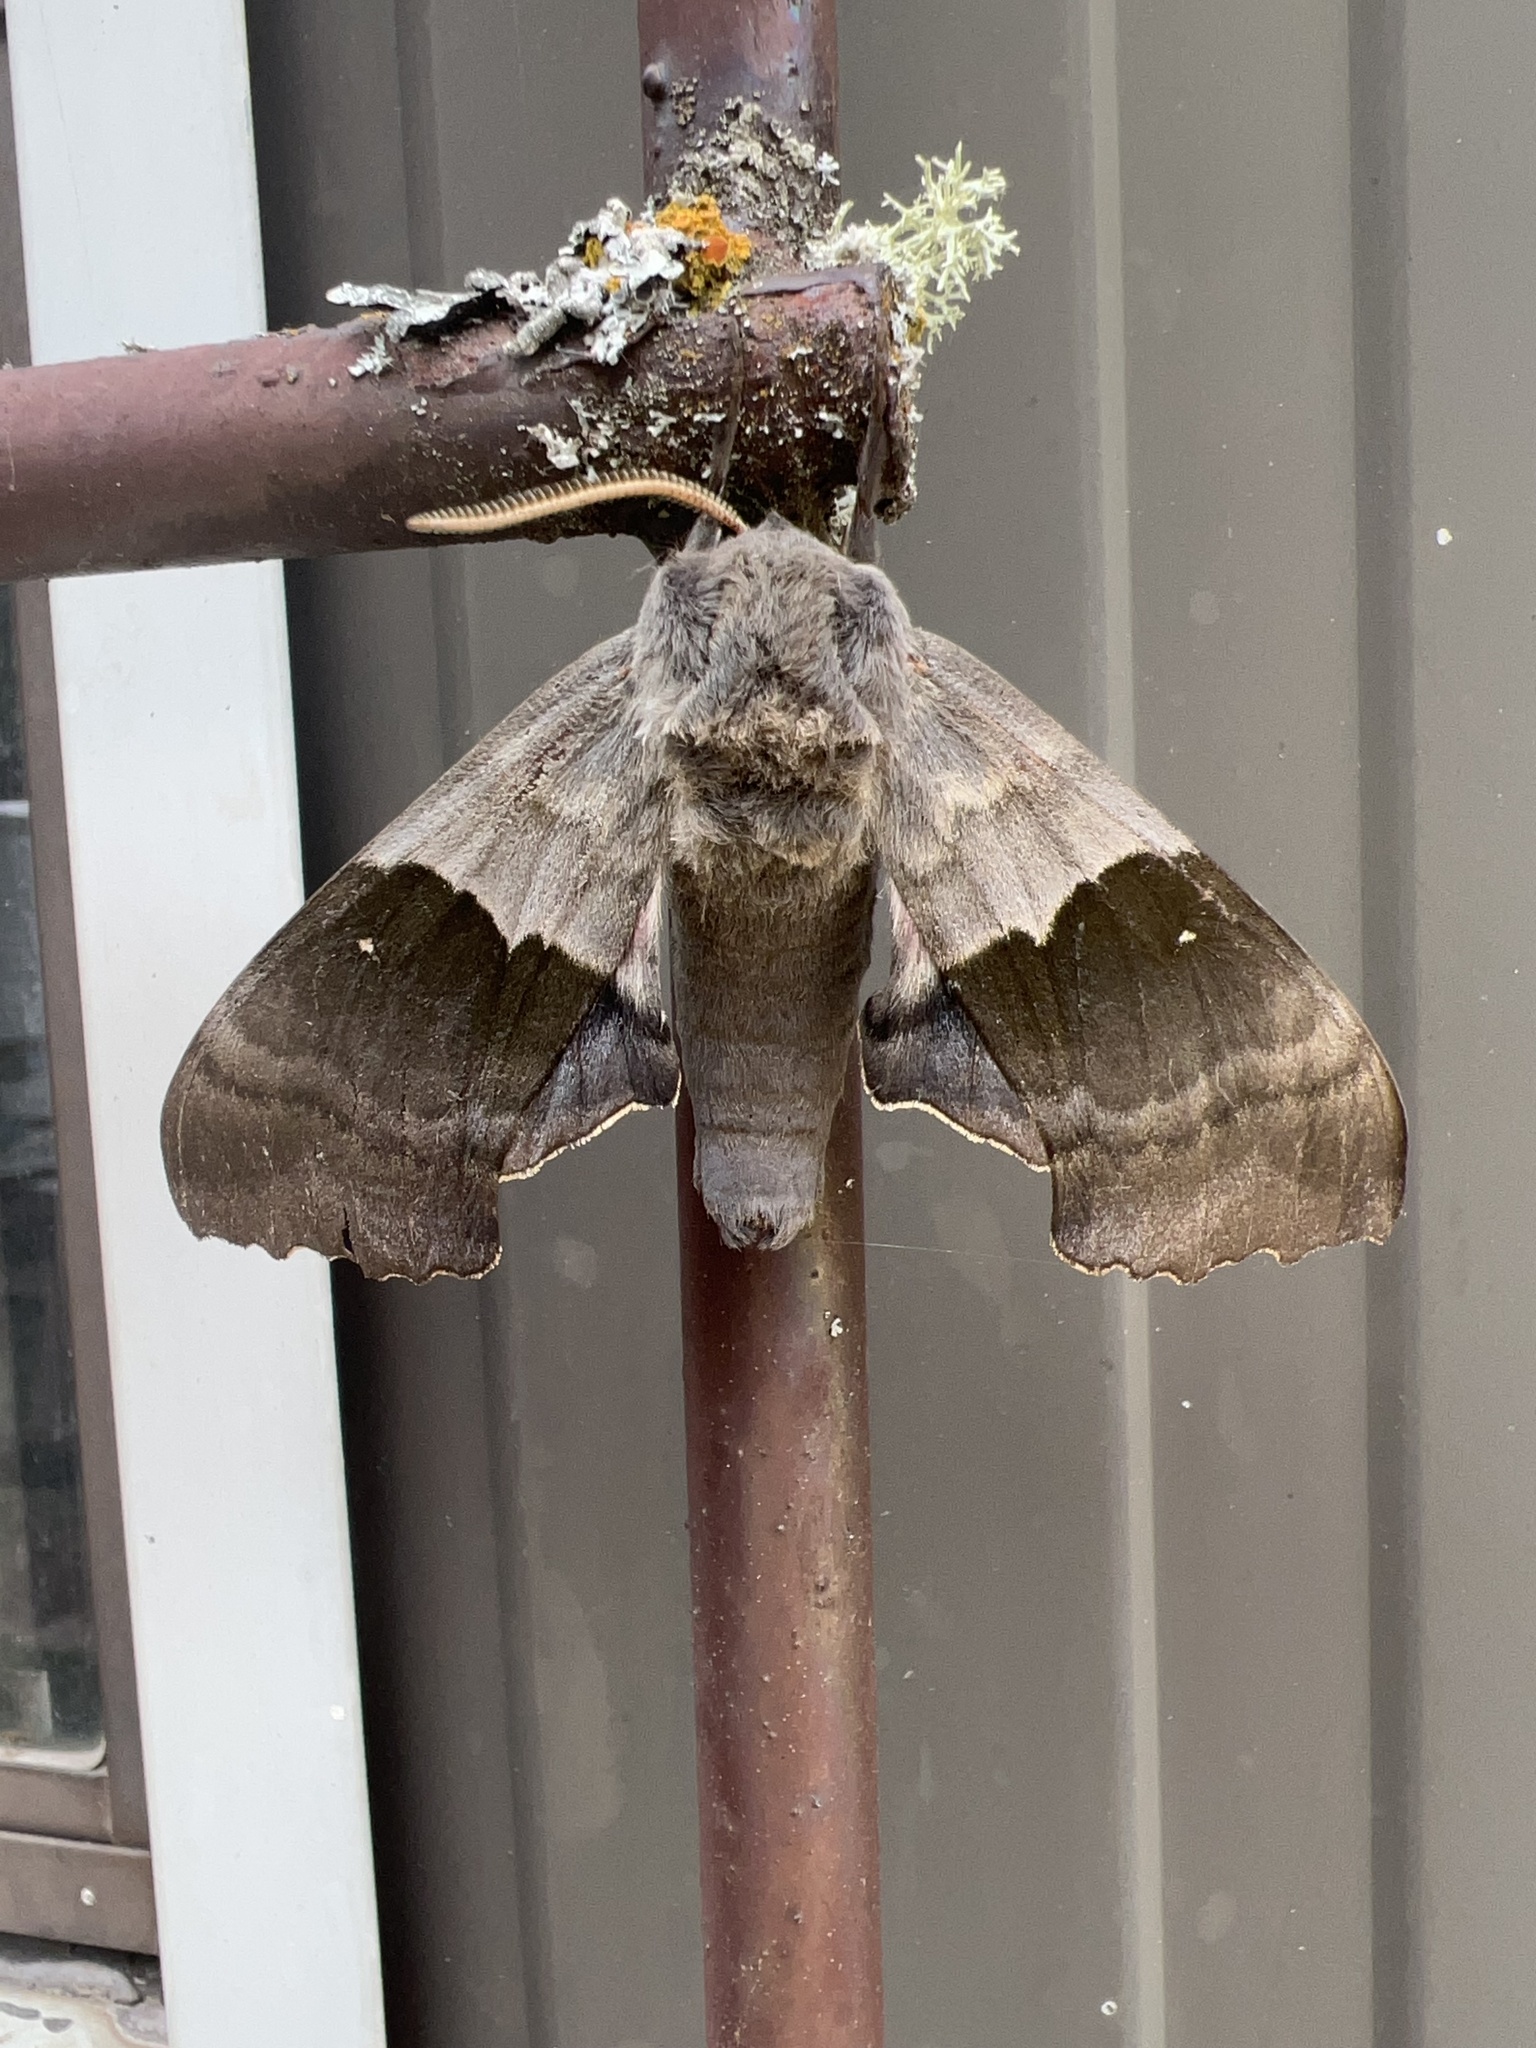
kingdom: Animalia
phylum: Arthropoda
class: Insecta
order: Lepidoptera
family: Sphingidae
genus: Pachysphinx
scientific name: Pachysphinx modesta
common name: Big poplar sphinx
